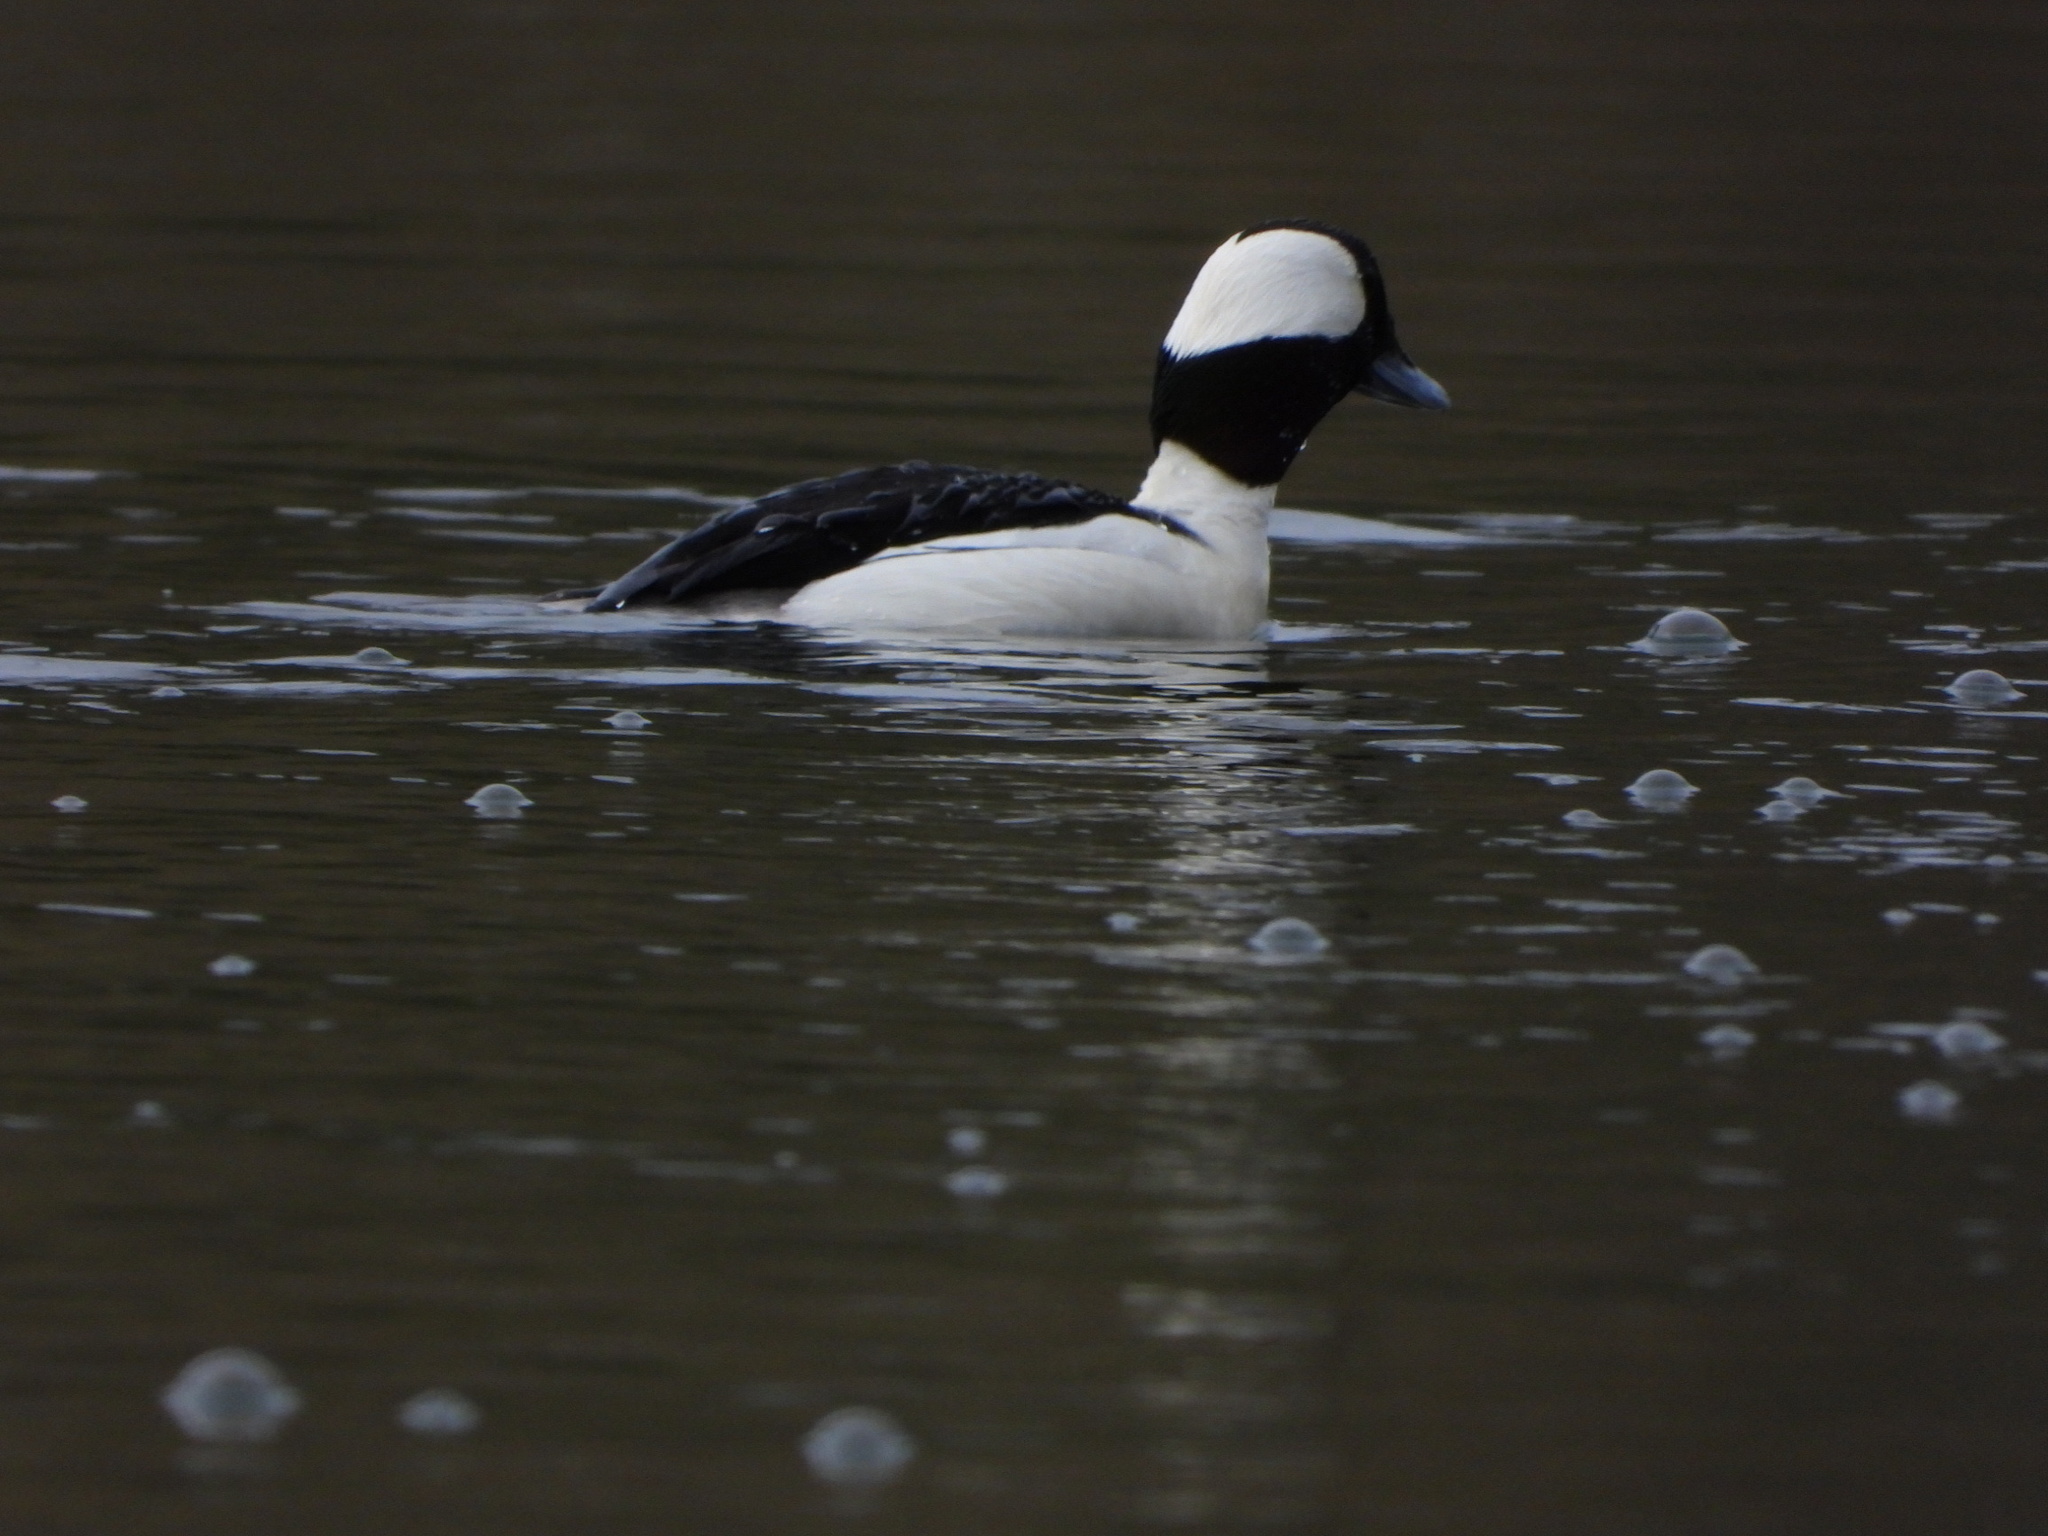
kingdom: Animalia
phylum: Chordata
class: Aves
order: Anseriformes
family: Anatidae
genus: Bucephala
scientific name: Bucephala albeola
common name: Bufflehead
